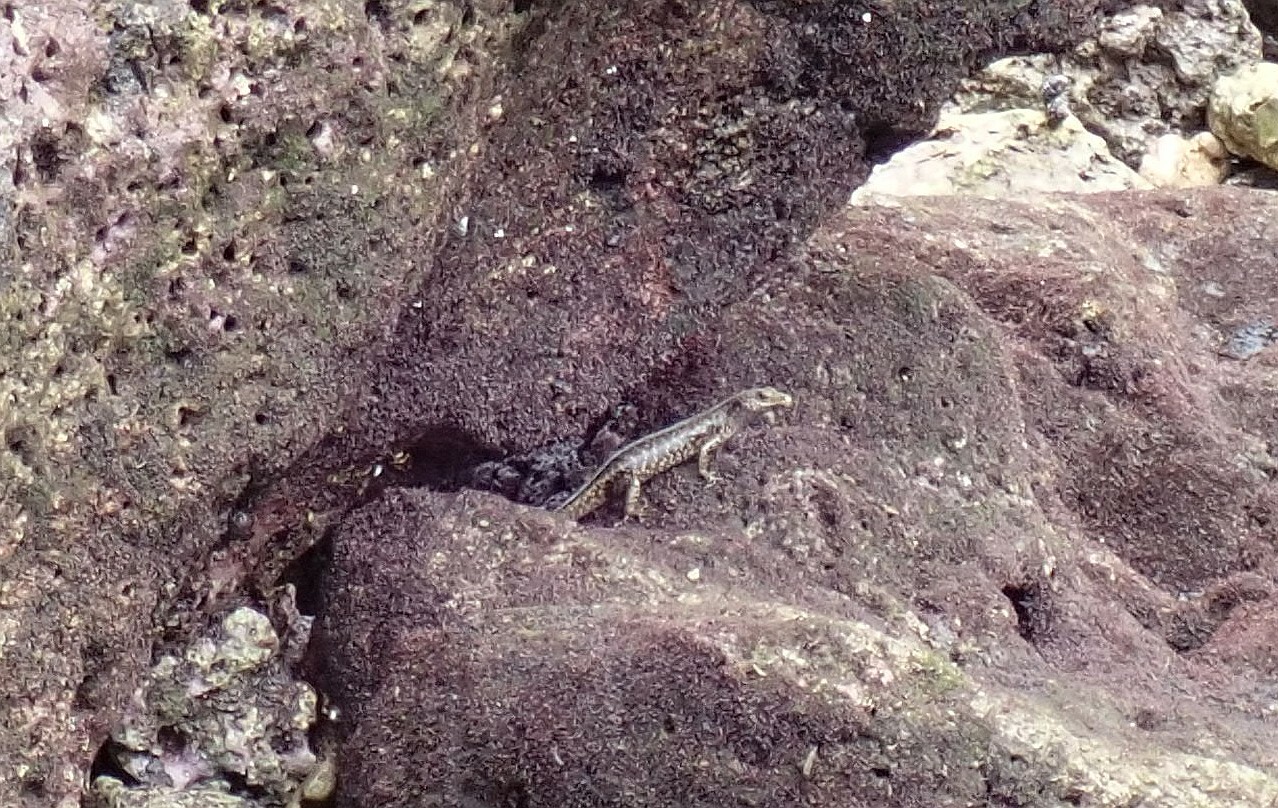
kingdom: Animalia
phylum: Chordata
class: Squamata
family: Scincidae
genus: Emoia
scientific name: Emoia atrocostata
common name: Littoral skink
